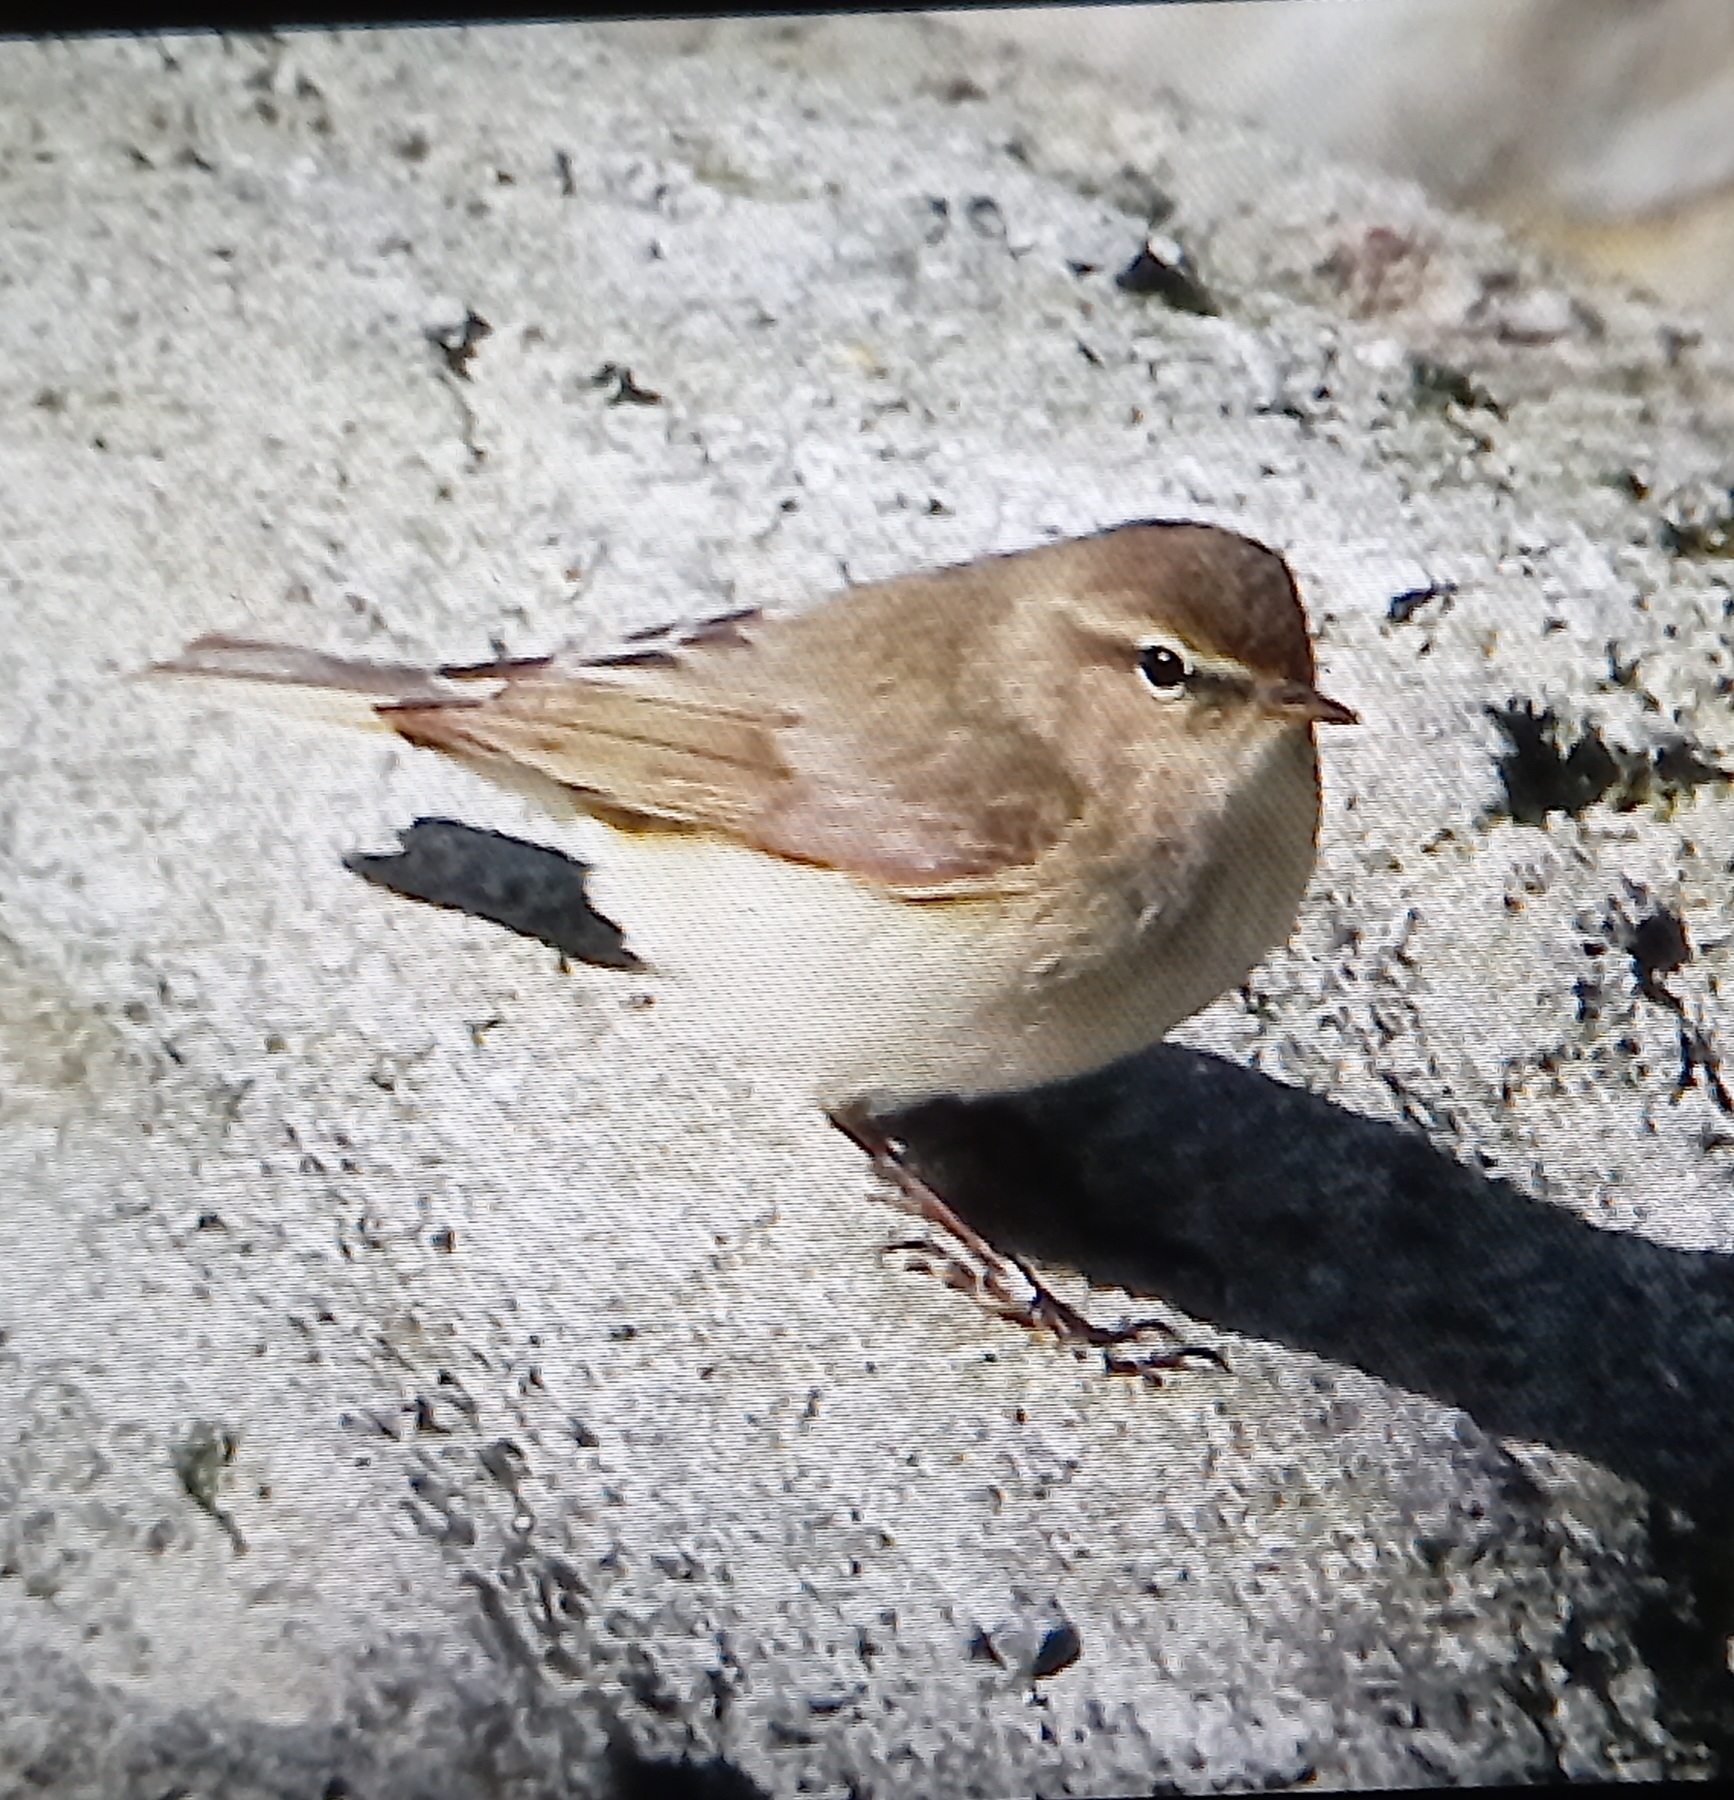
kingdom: Animalia
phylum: Chordata
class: Aves
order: Passeriformes
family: Phylloscopidae
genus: Phylloscopus
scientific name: Phylloscopus collybita
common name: Common chiffchaff
